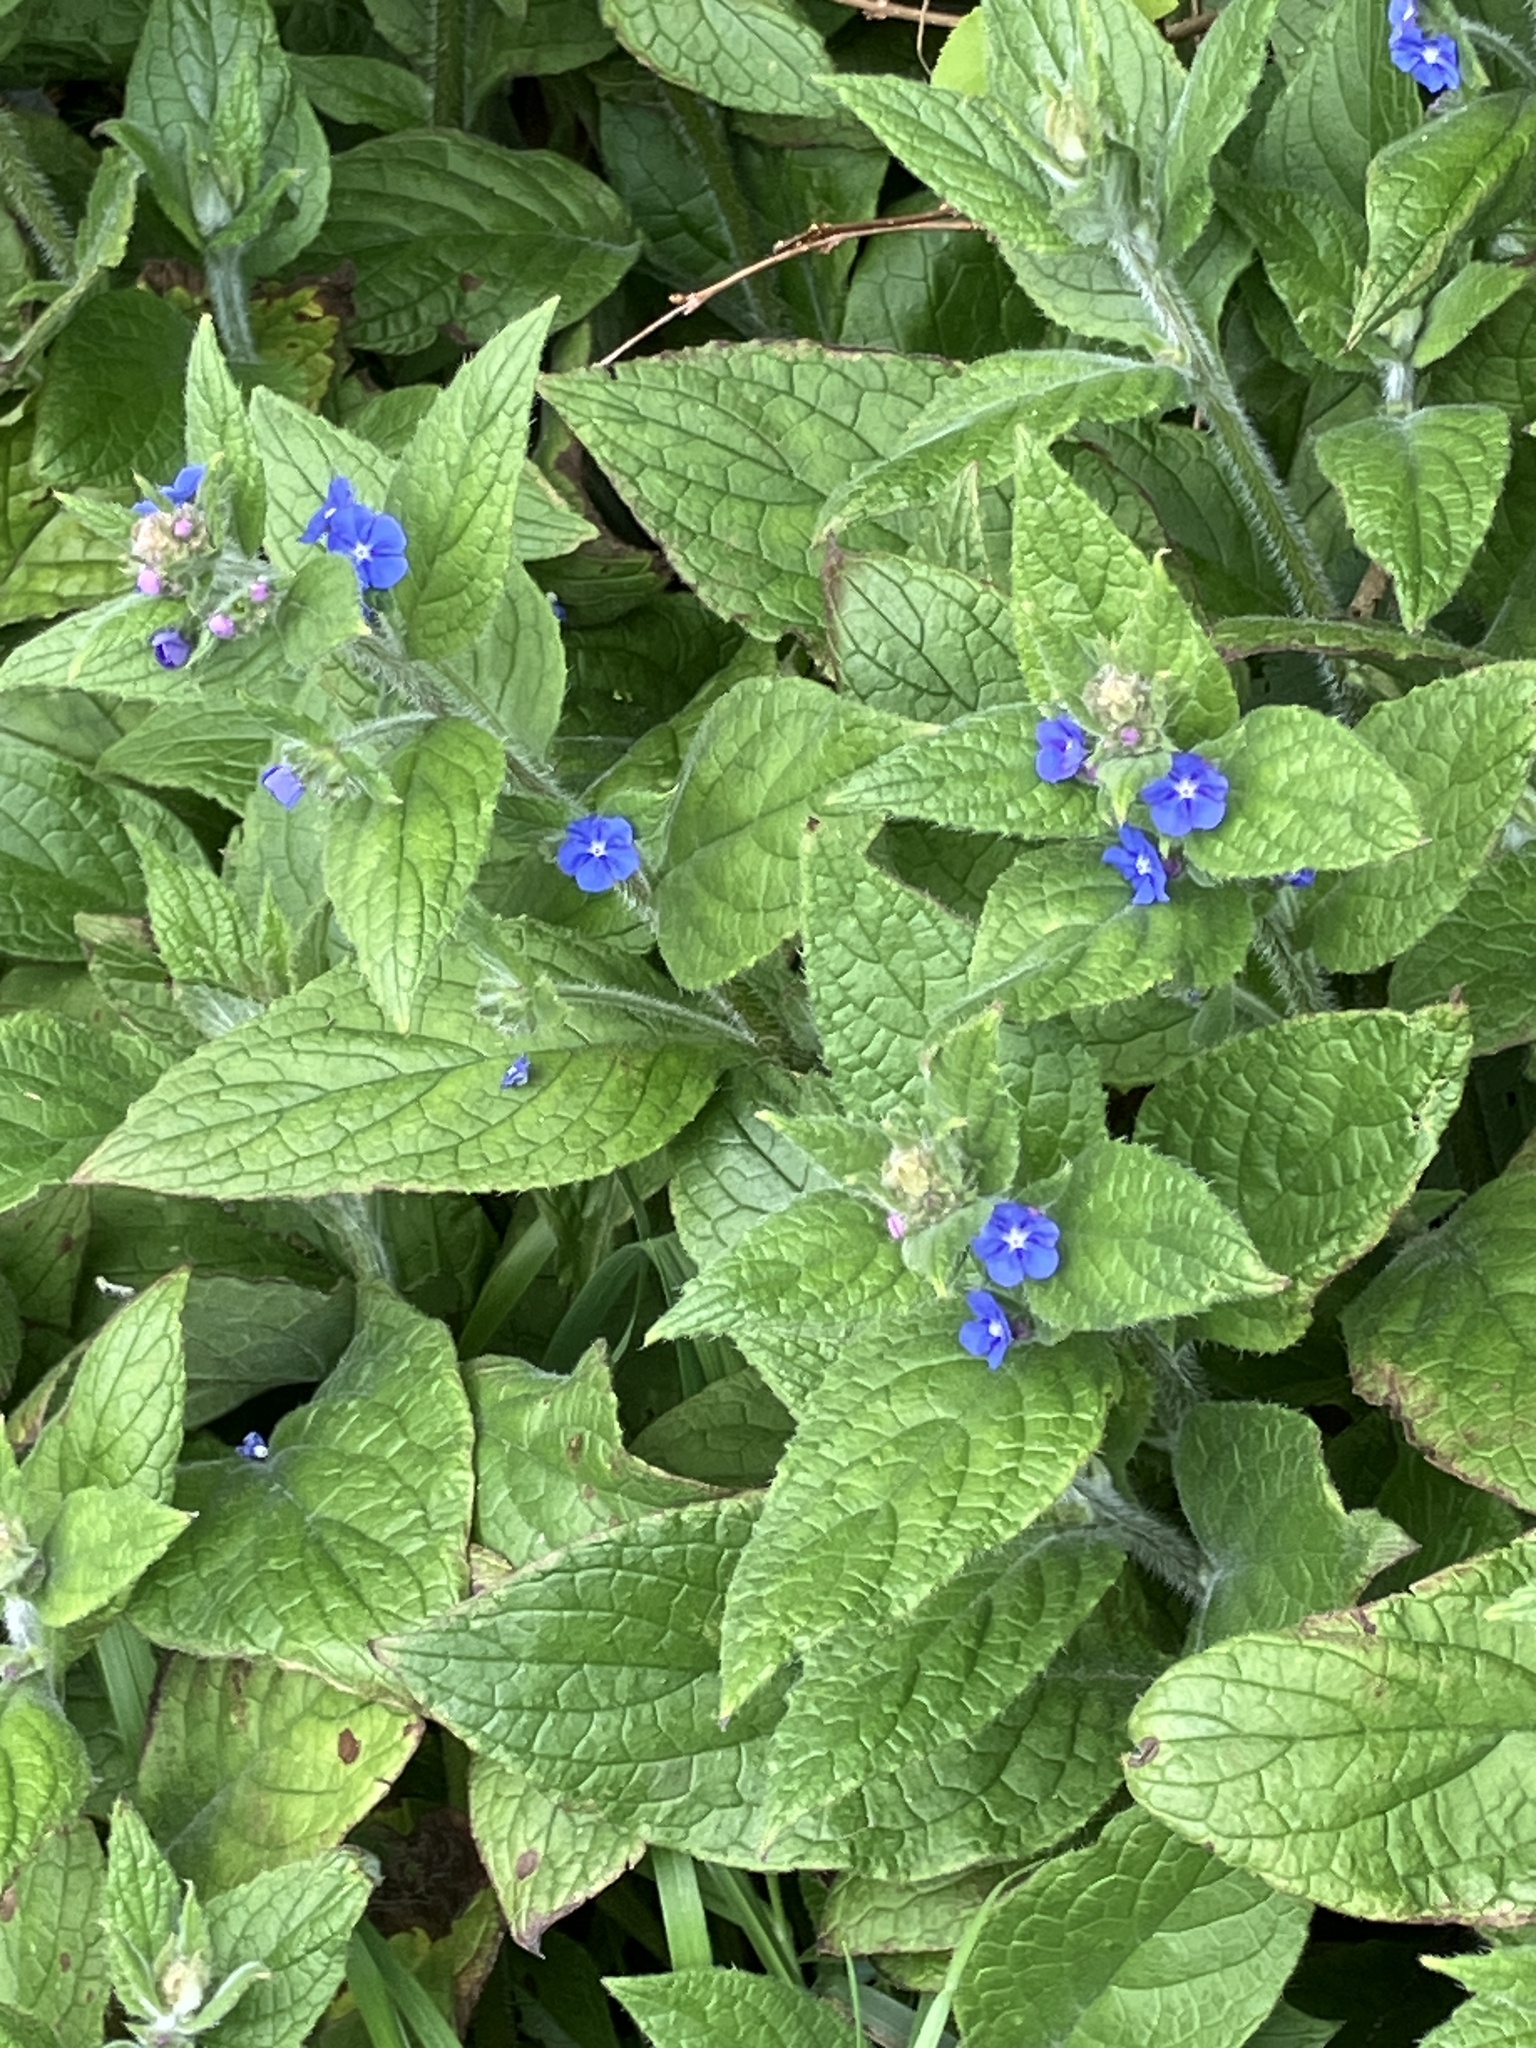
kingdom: Plantae
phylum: Tracheophyta
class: Magnoliopsida
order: Boraginales
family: Boraginaceae
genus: Pentaglottis
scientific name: Pentaglottis sempervirens
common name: Green alkanet
